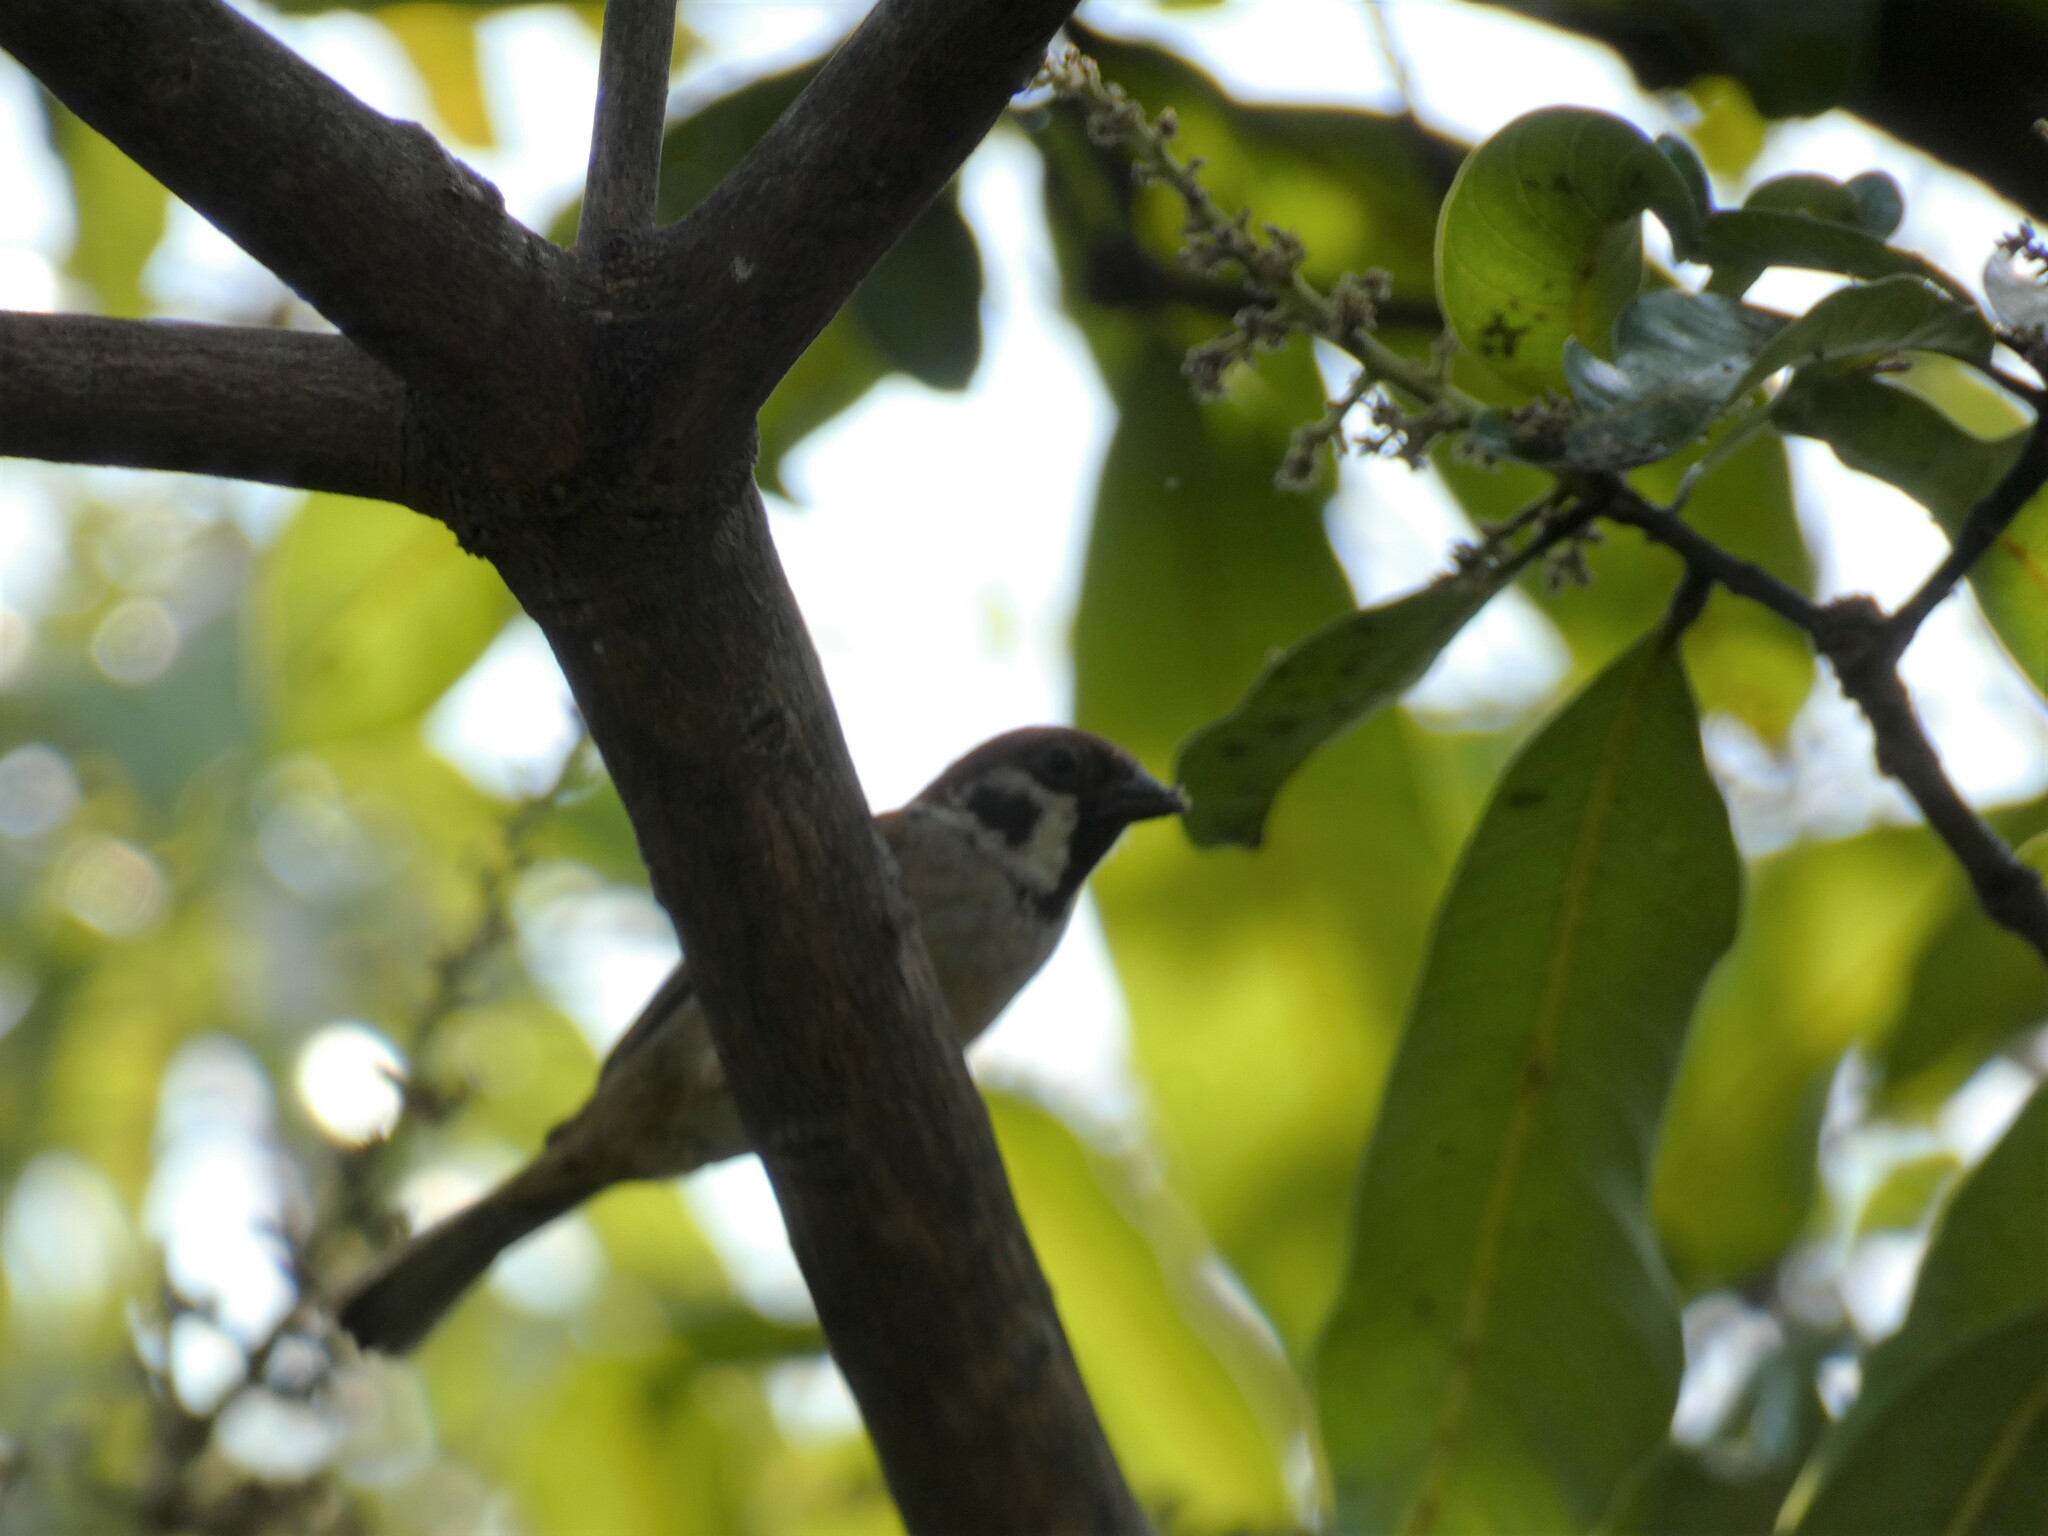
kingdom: Animalia
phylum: Chordata
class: Aves
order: Passeriformes
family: Passeridae
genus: Passer
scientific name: Passer montanus
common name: Eurasian tree sparrow
